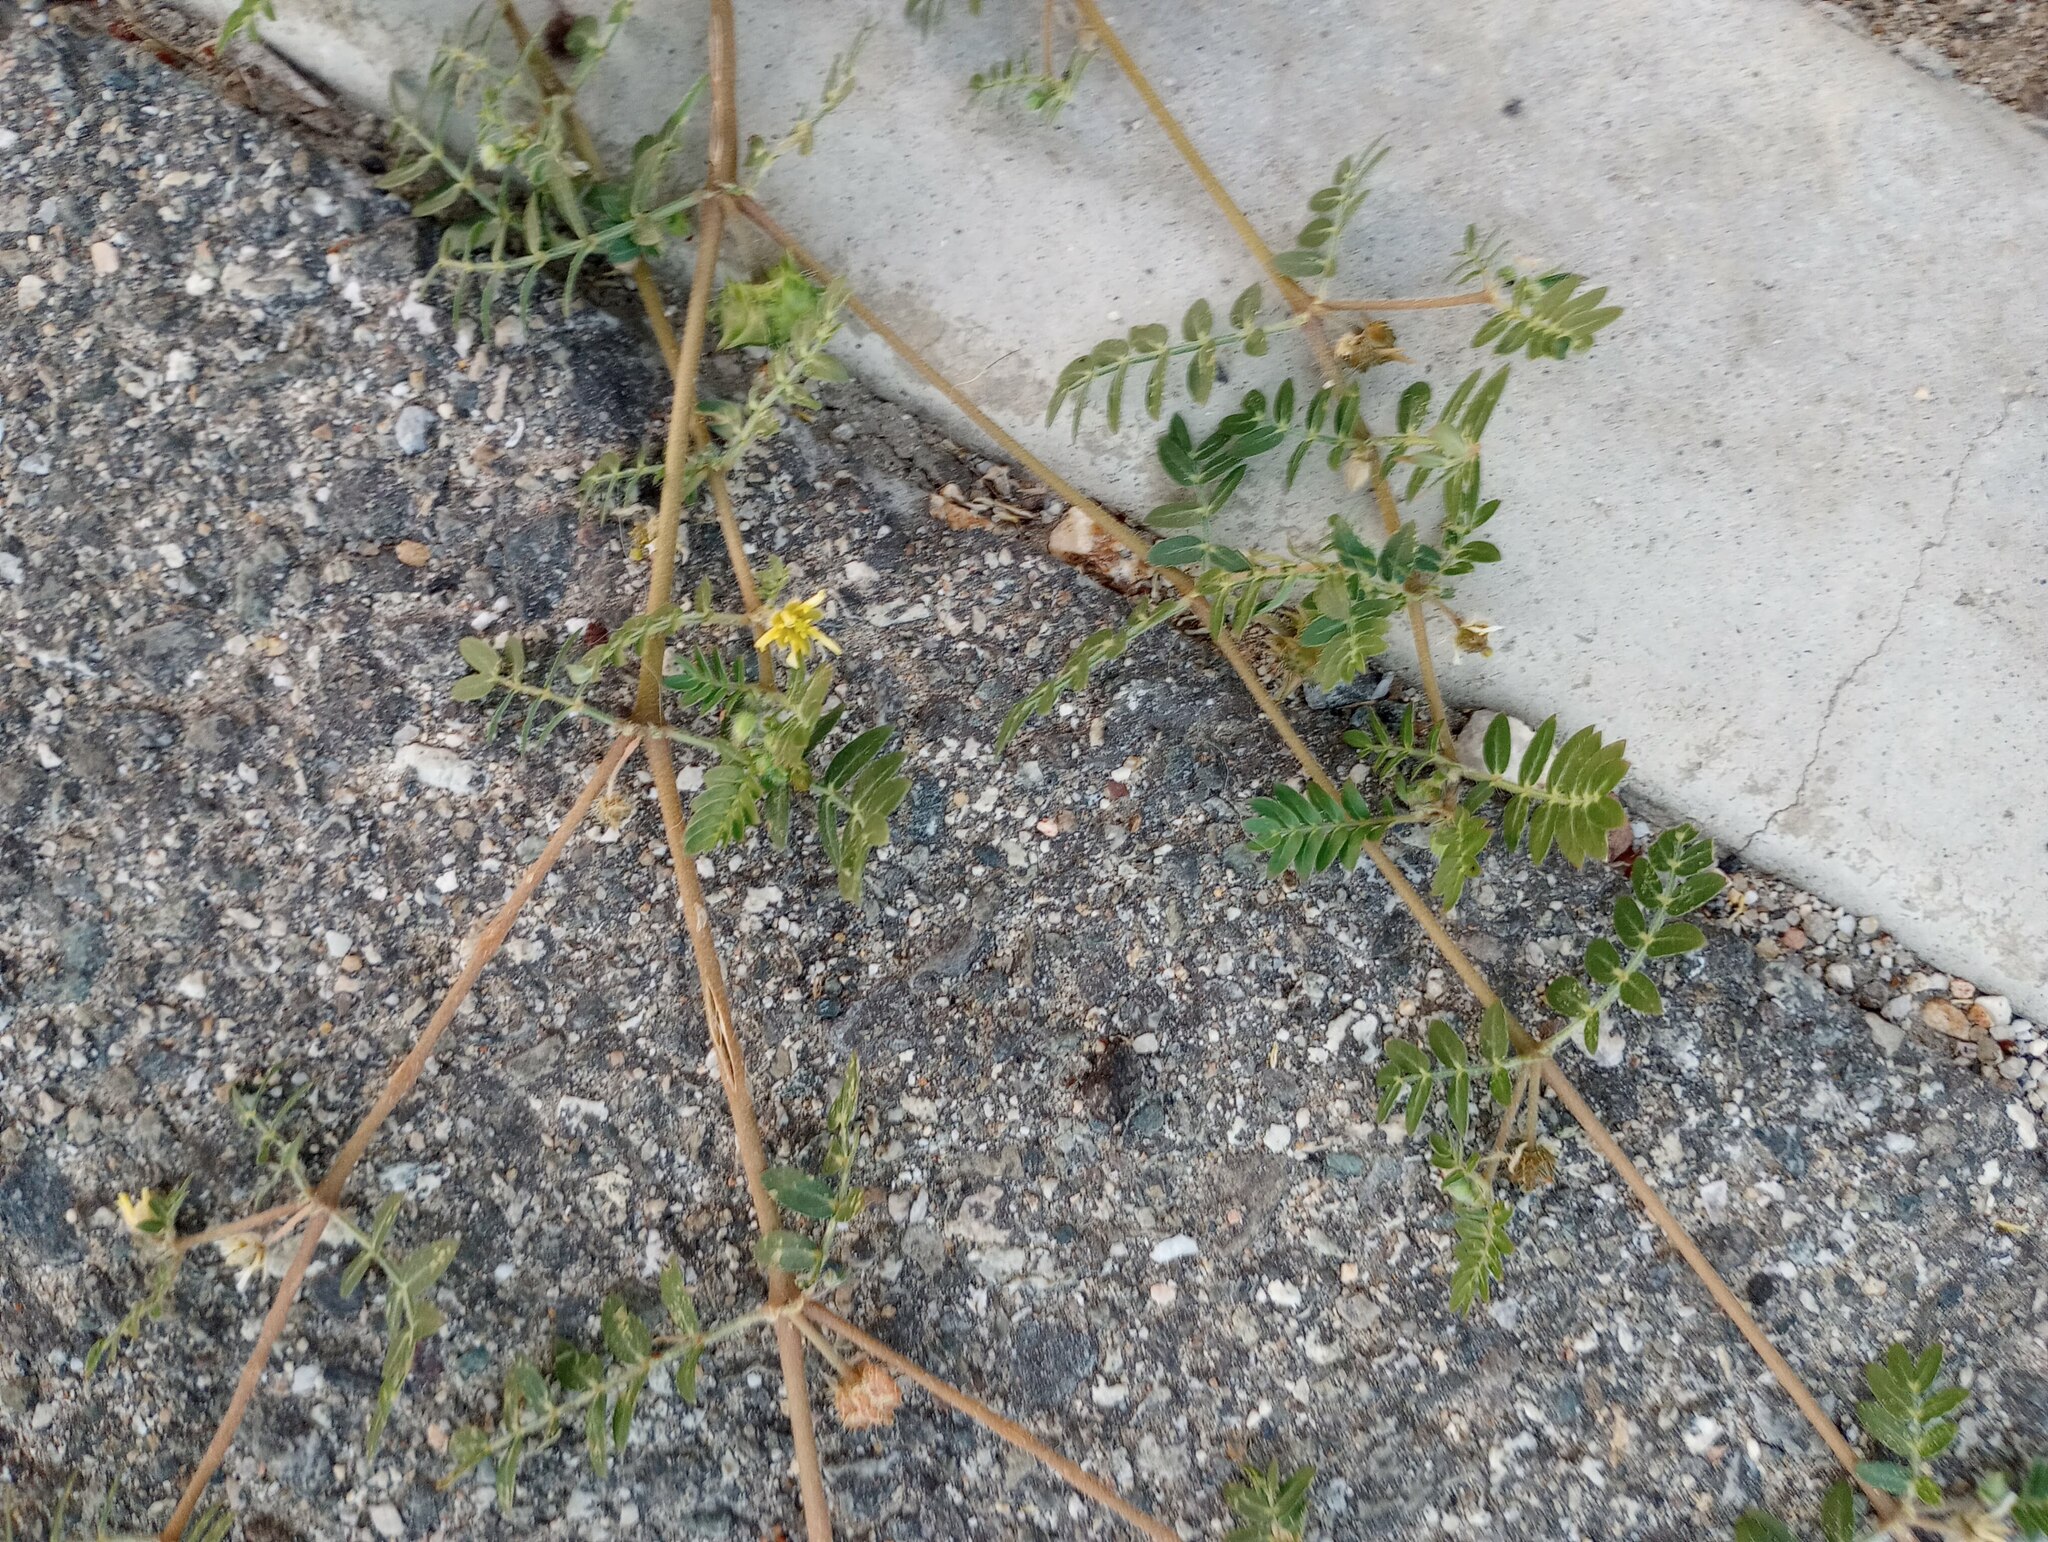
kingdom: Plantae
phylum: Tracheophyta
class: Magnoliopsida
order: Zygophyllales
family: Zygophyllaceae
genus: Tribulus
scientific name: Tribulus terrestris
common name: Puncturevine
